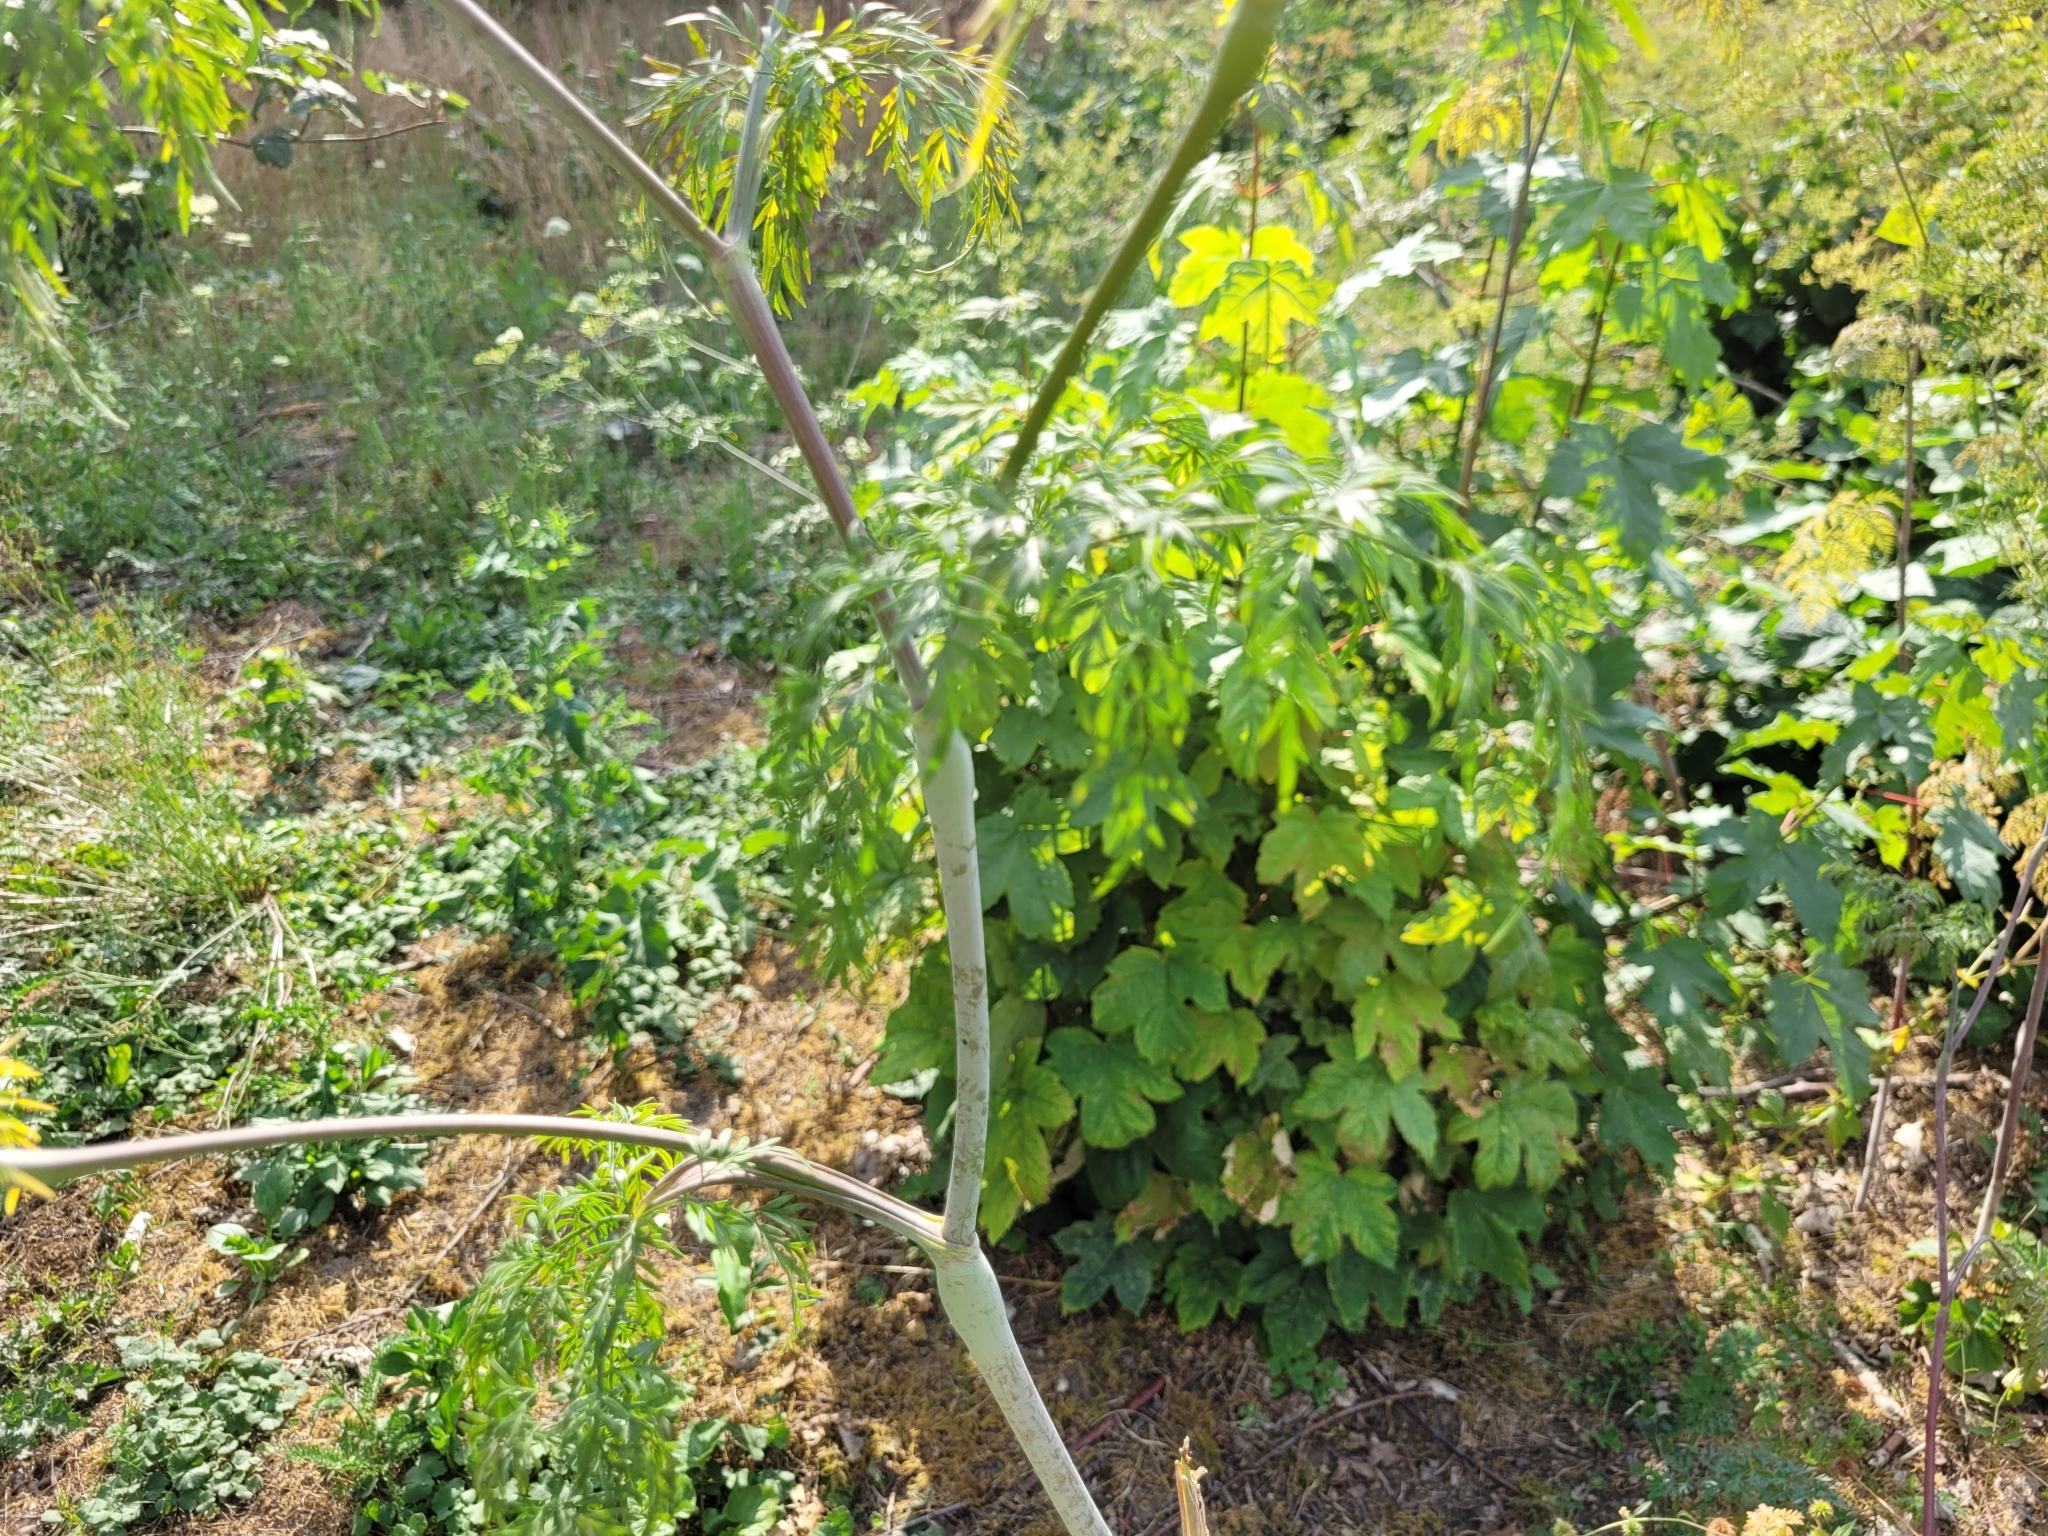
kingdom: Plantae
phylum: Tracheophyta
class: Magnoliopsida
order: Apiales
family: Apiaceae
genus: Chaerophyllum
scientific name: Chaerophyllum bulbosum
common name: Bulbous chervil
